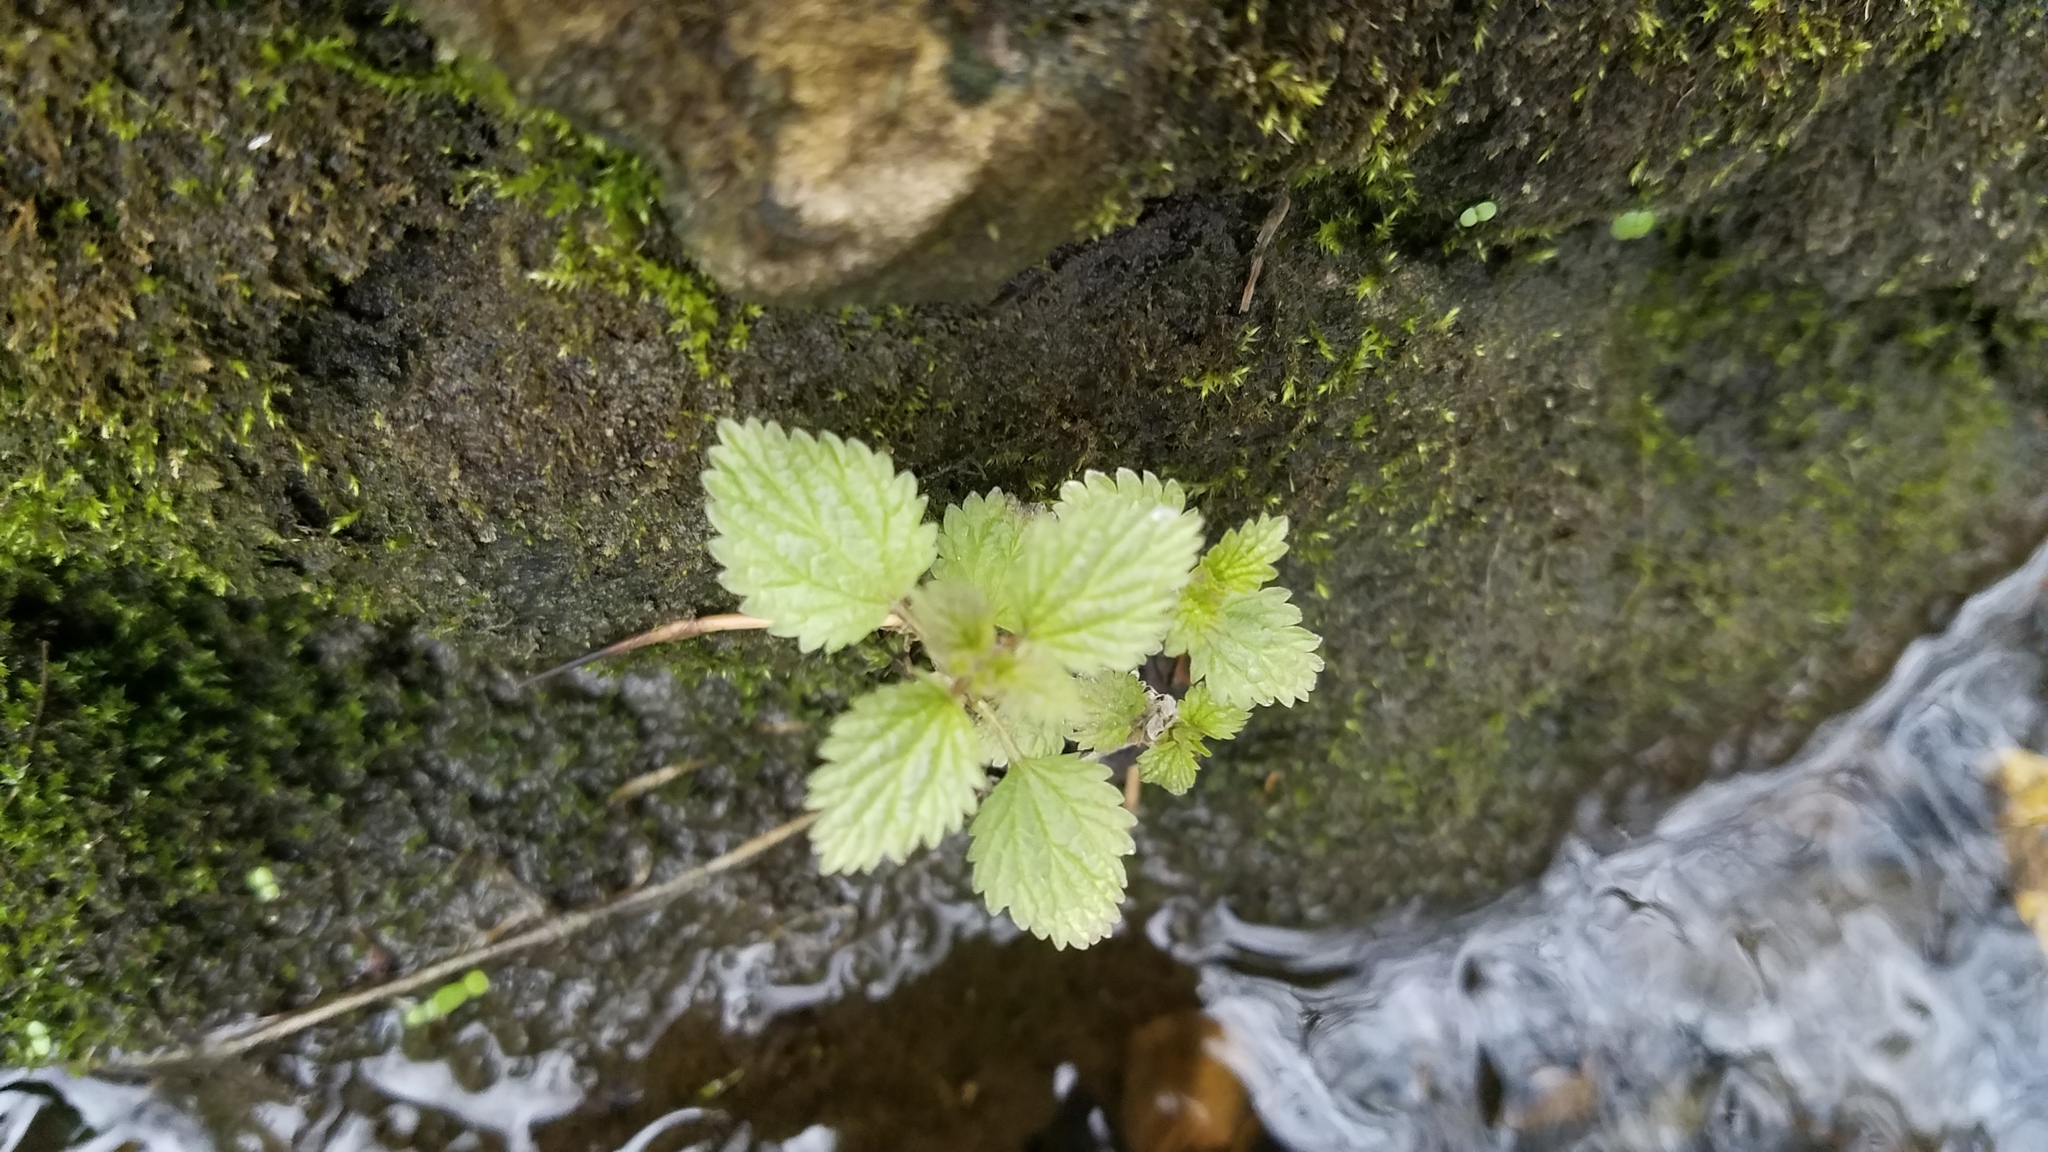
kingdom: Plantae
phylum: Tracheophyta
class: Magnoliopsida
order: Rosales
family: Urticaceae
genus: Urtica
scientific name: Urtica gracilis
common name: Slender stinging nettle
